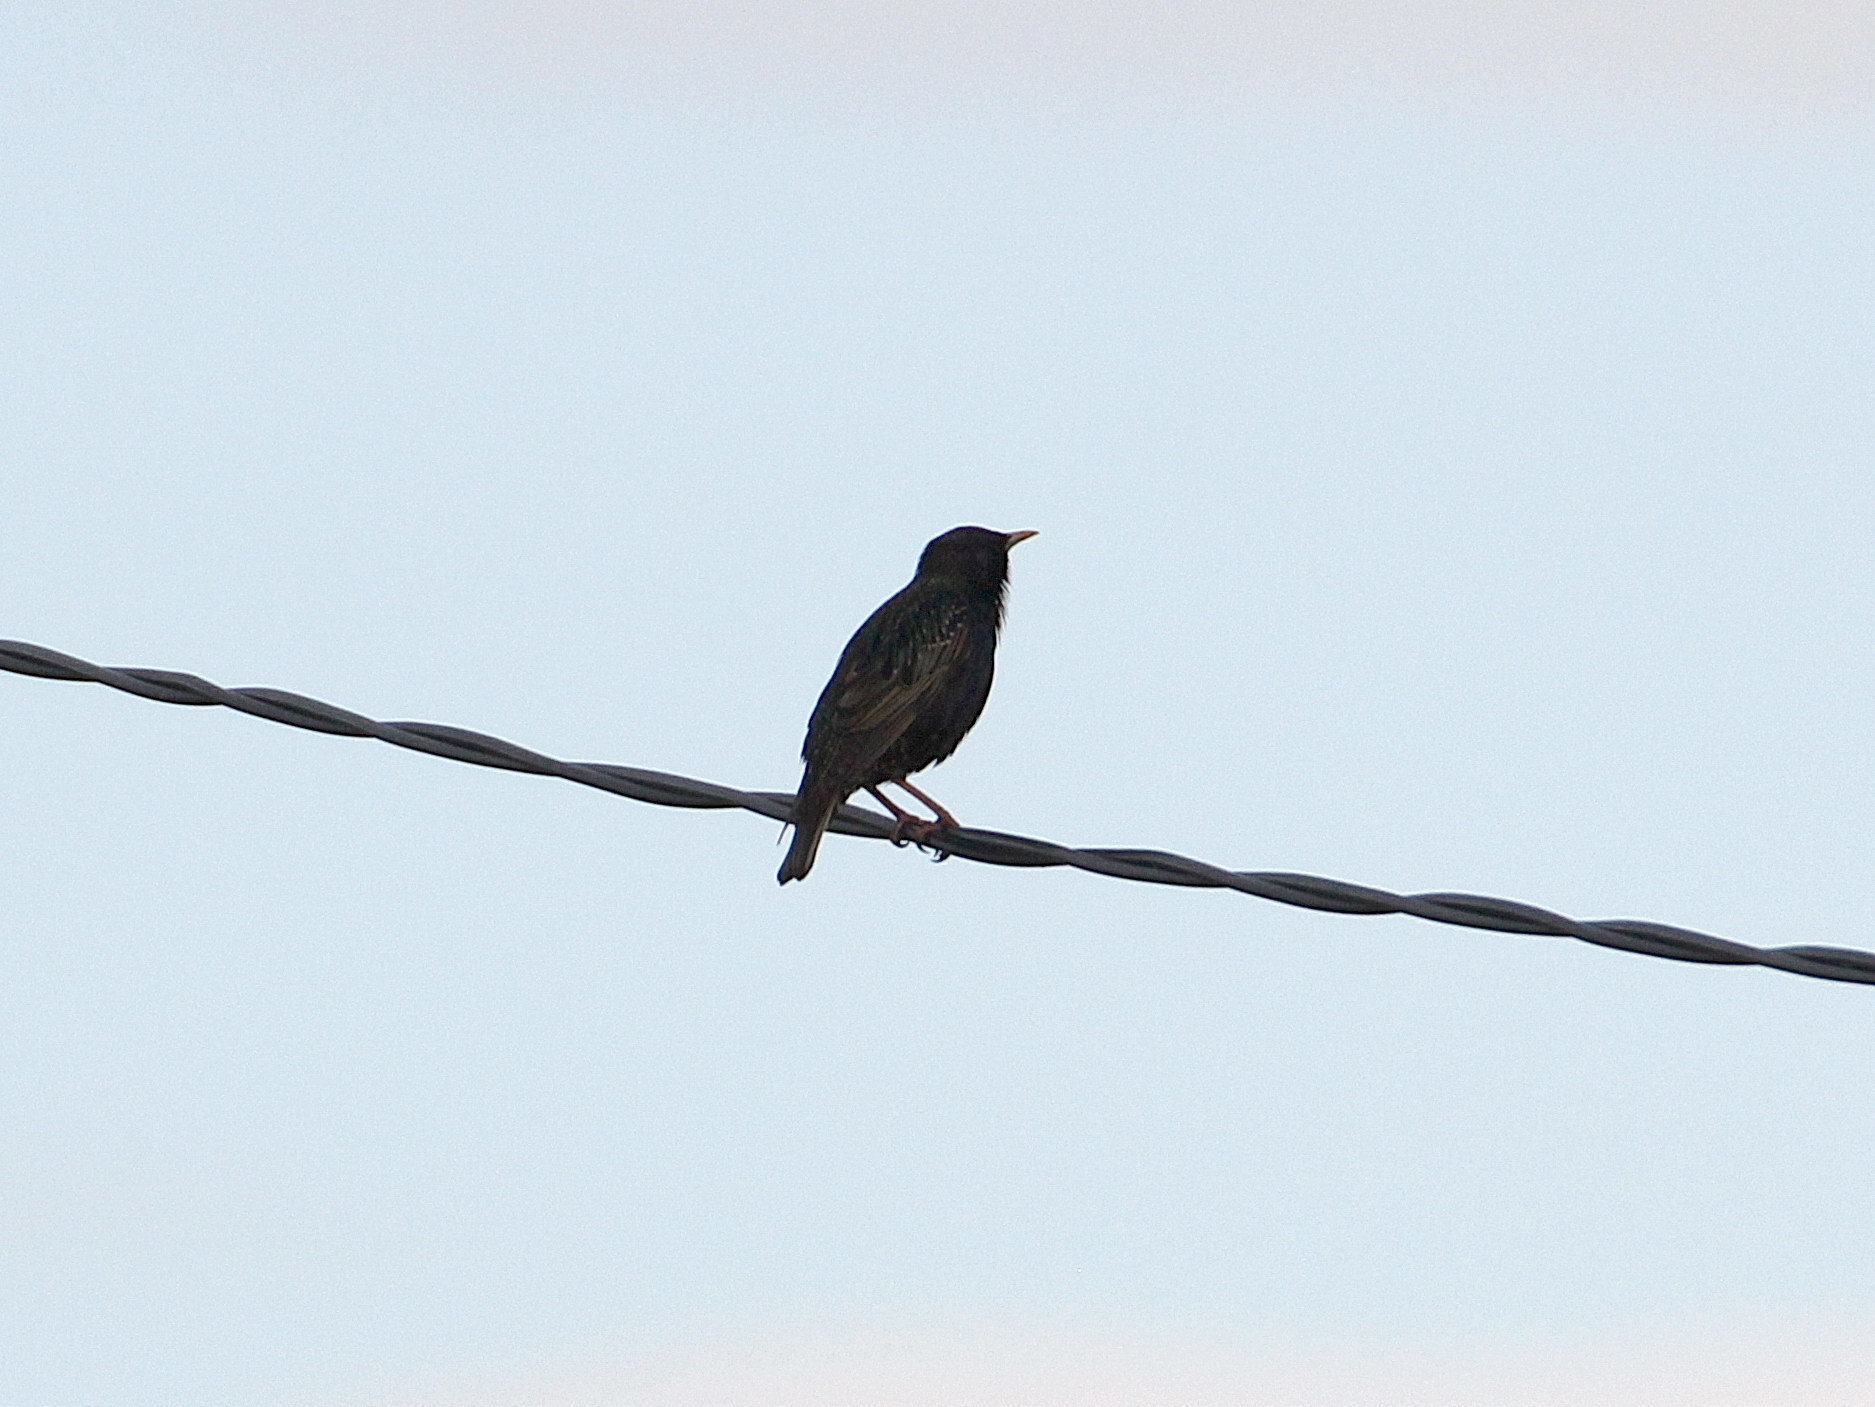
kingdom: Animalia
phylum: Chordata
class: Aves
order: Passeriformes
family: Sturnidae
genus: Sturnus
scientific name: Sturnus vulgaris
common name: Common starling
